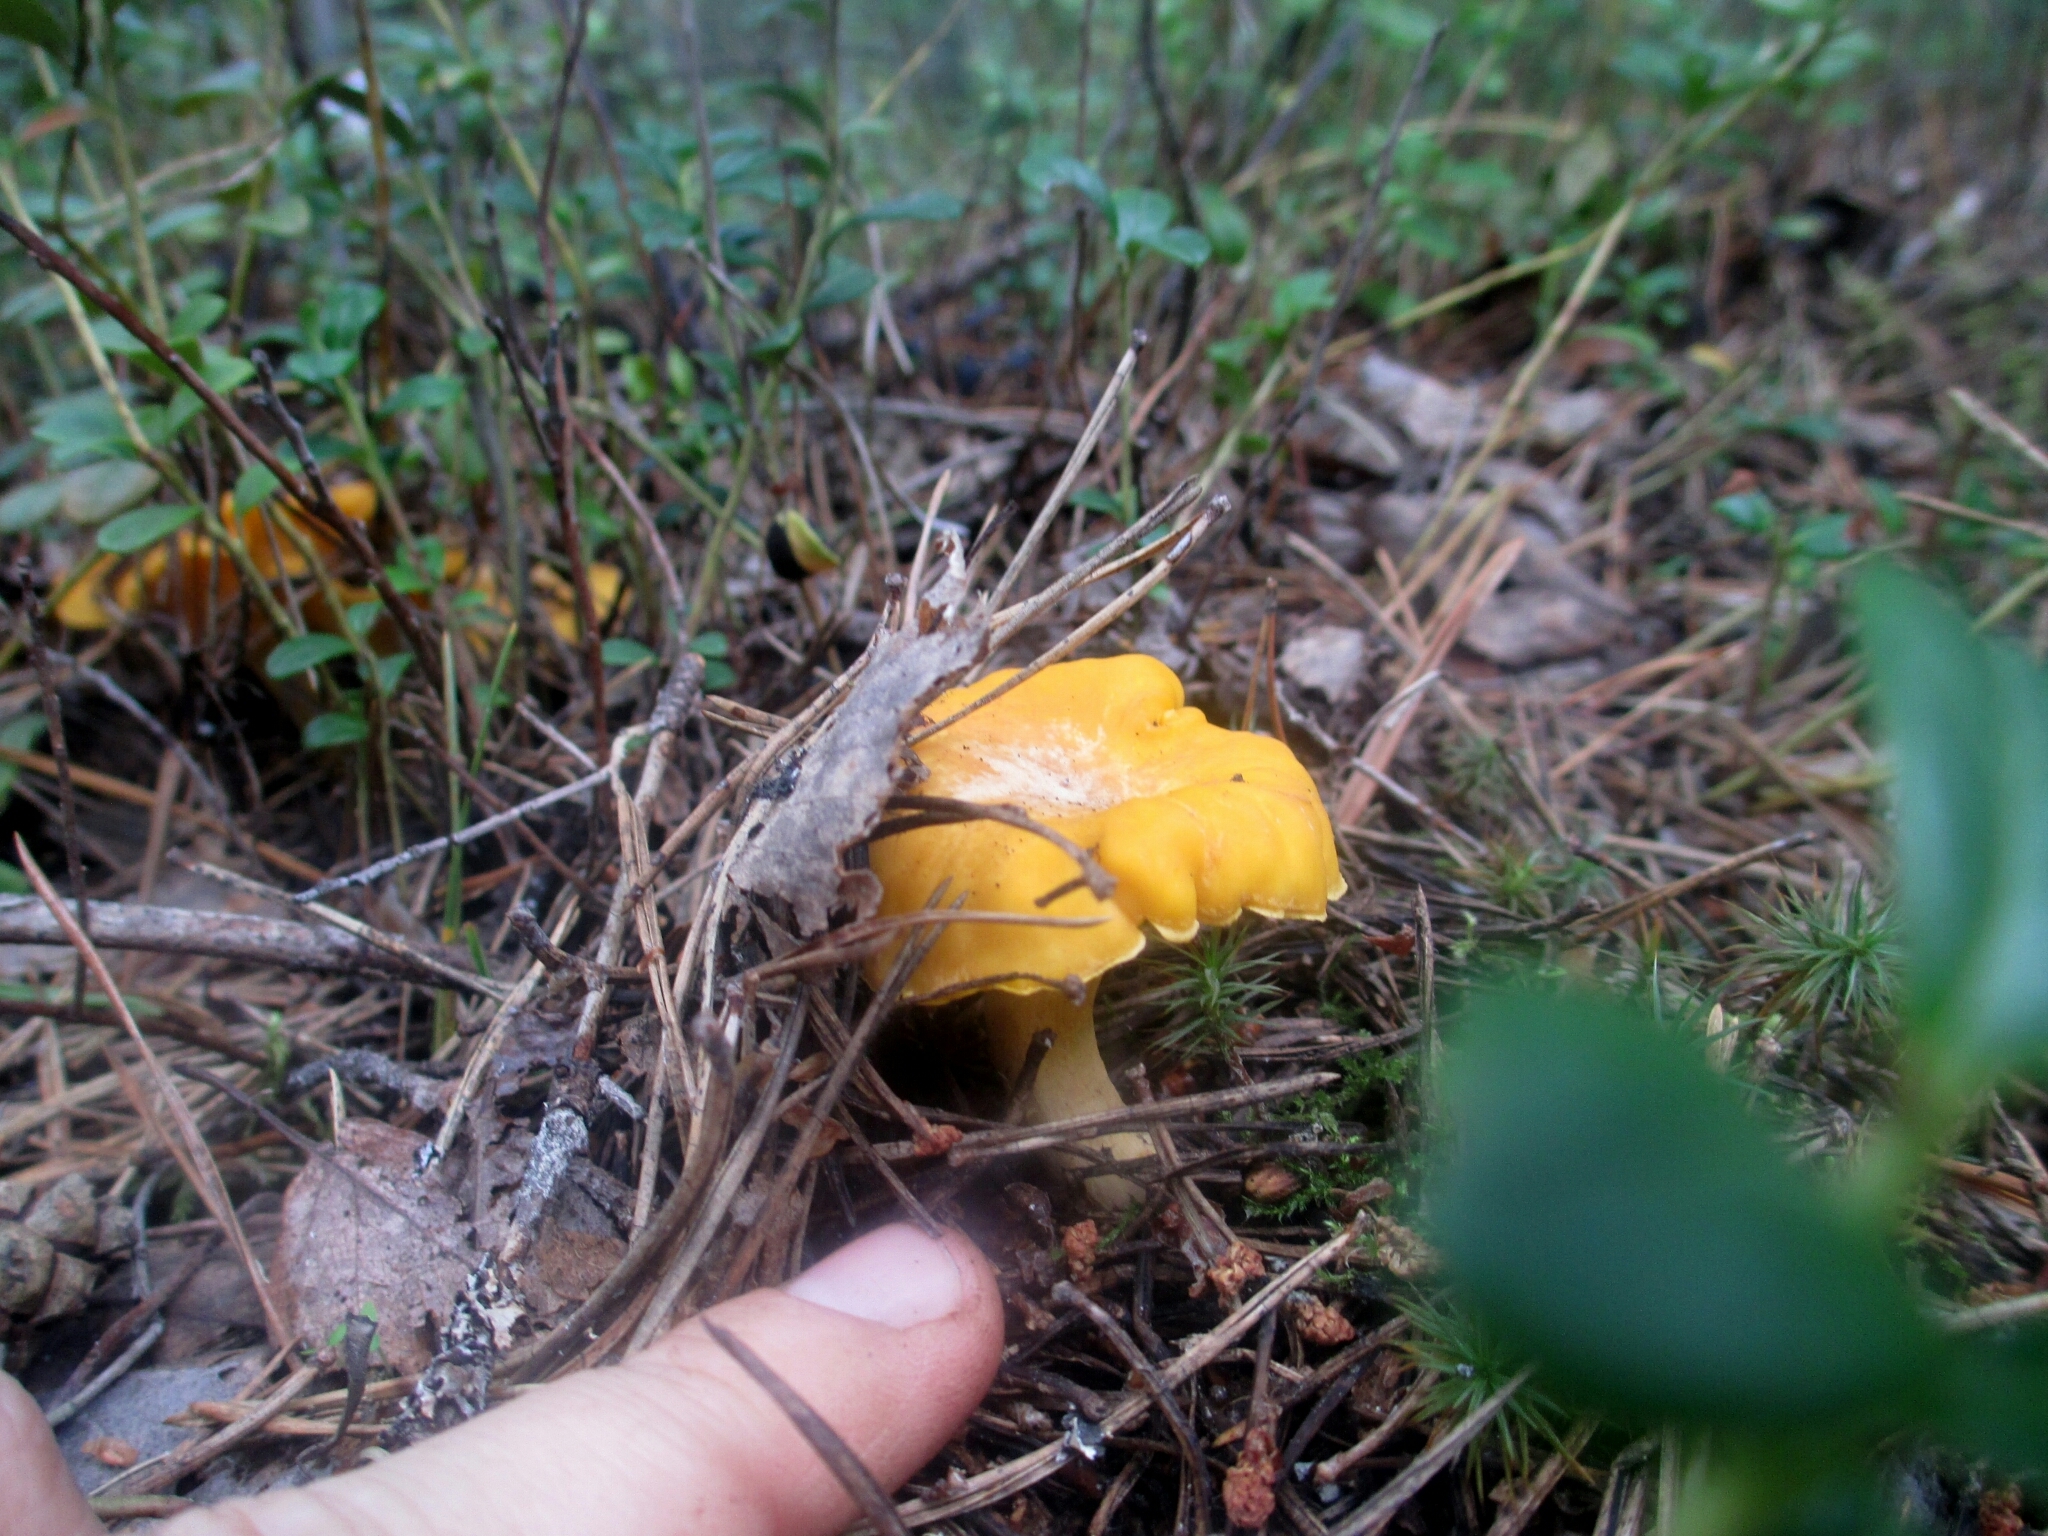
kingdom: Fungi
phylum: Basidiomycota
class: Agaricomycetes
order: Cantharellales
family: Hydnaceae
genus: Cantharellus
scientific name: Cantharellus cibarius
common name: Chanterelle
